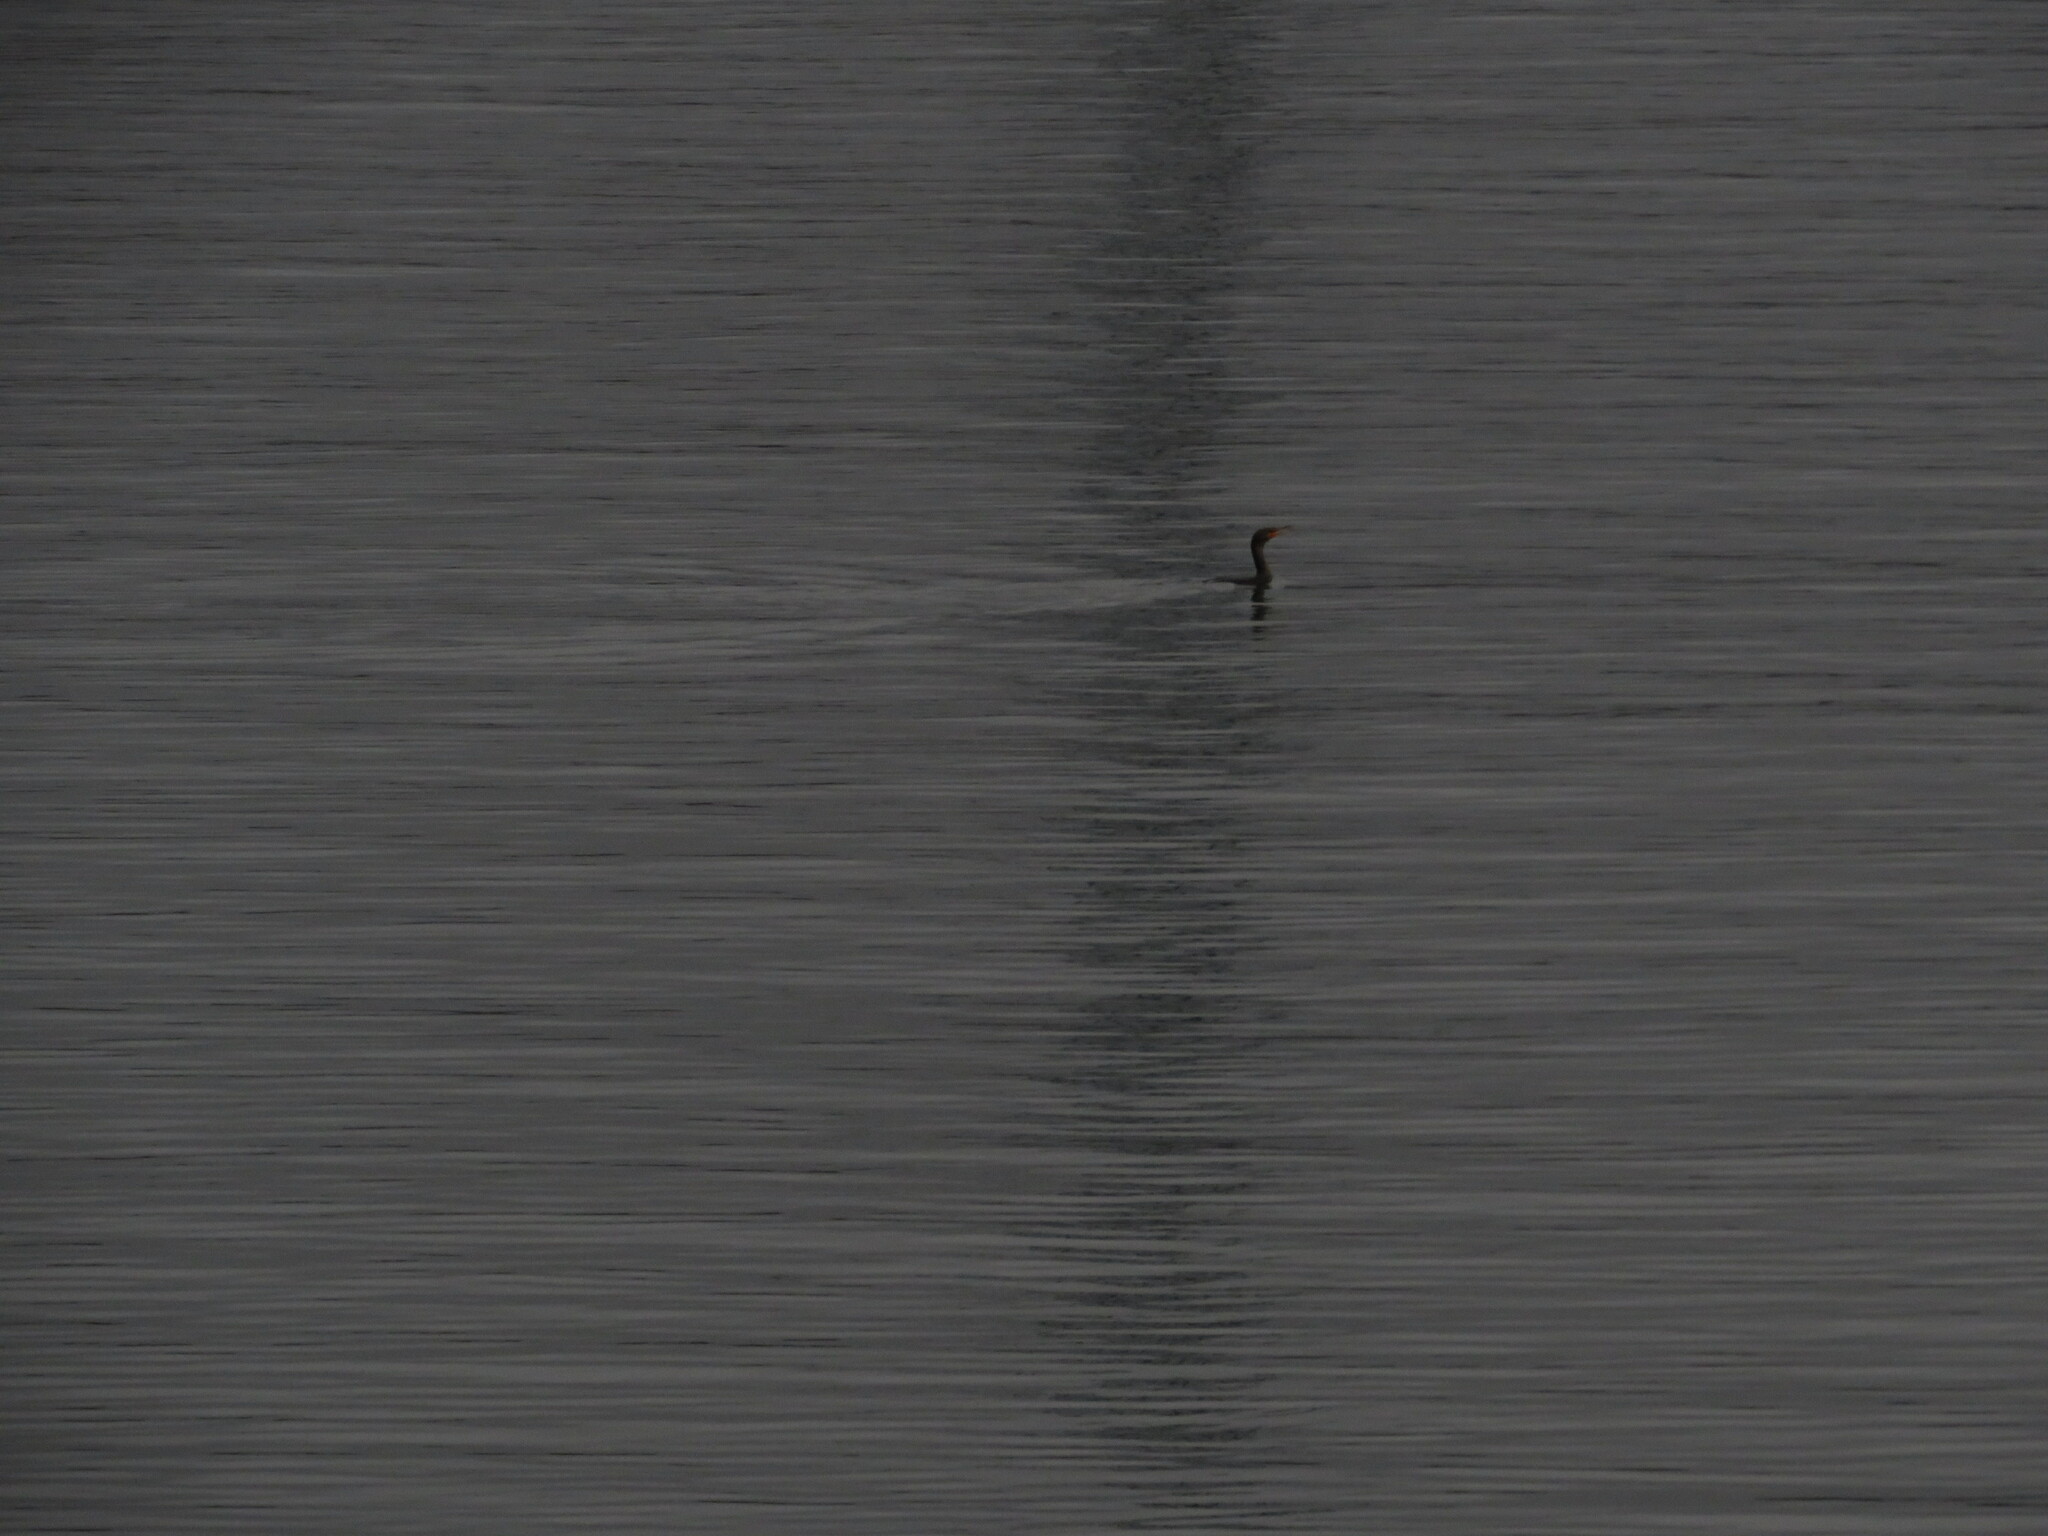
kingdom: Animalia
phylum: Chordata
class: Aves
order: Suliformes
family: Phalacrocoracidae
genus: Phalacrocorax
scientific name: Phalacrocorax auritus
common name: Double-crested cormorant
